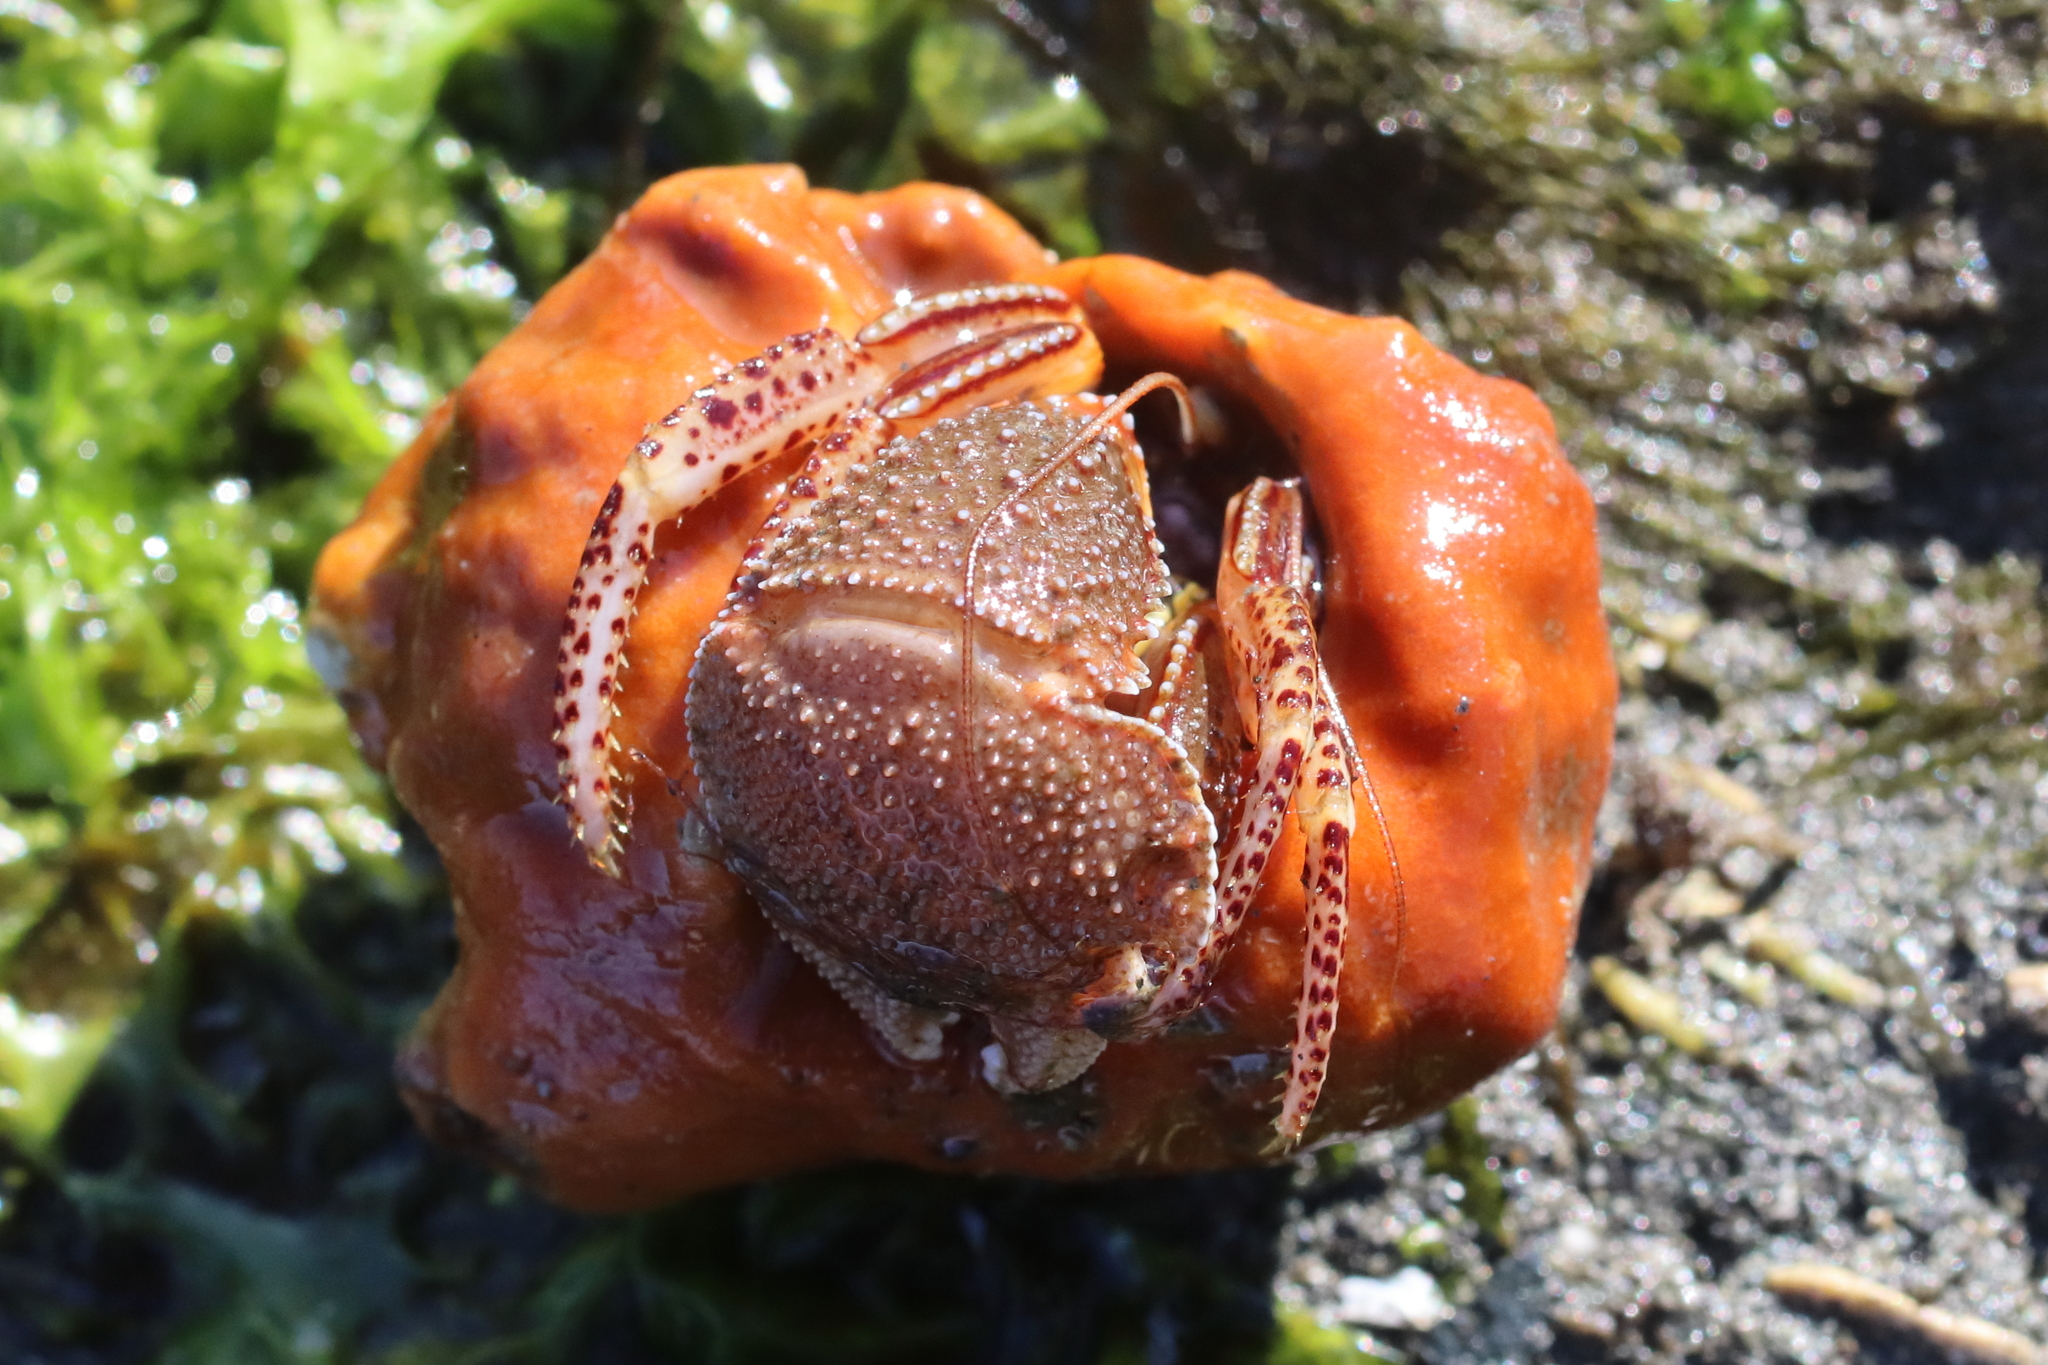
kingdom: Animalia
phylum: Arthropoda
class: Malacostraca
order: Decapoda
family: Paguridae
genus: Elassochirus
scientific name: Elassochirus tenuimanus
